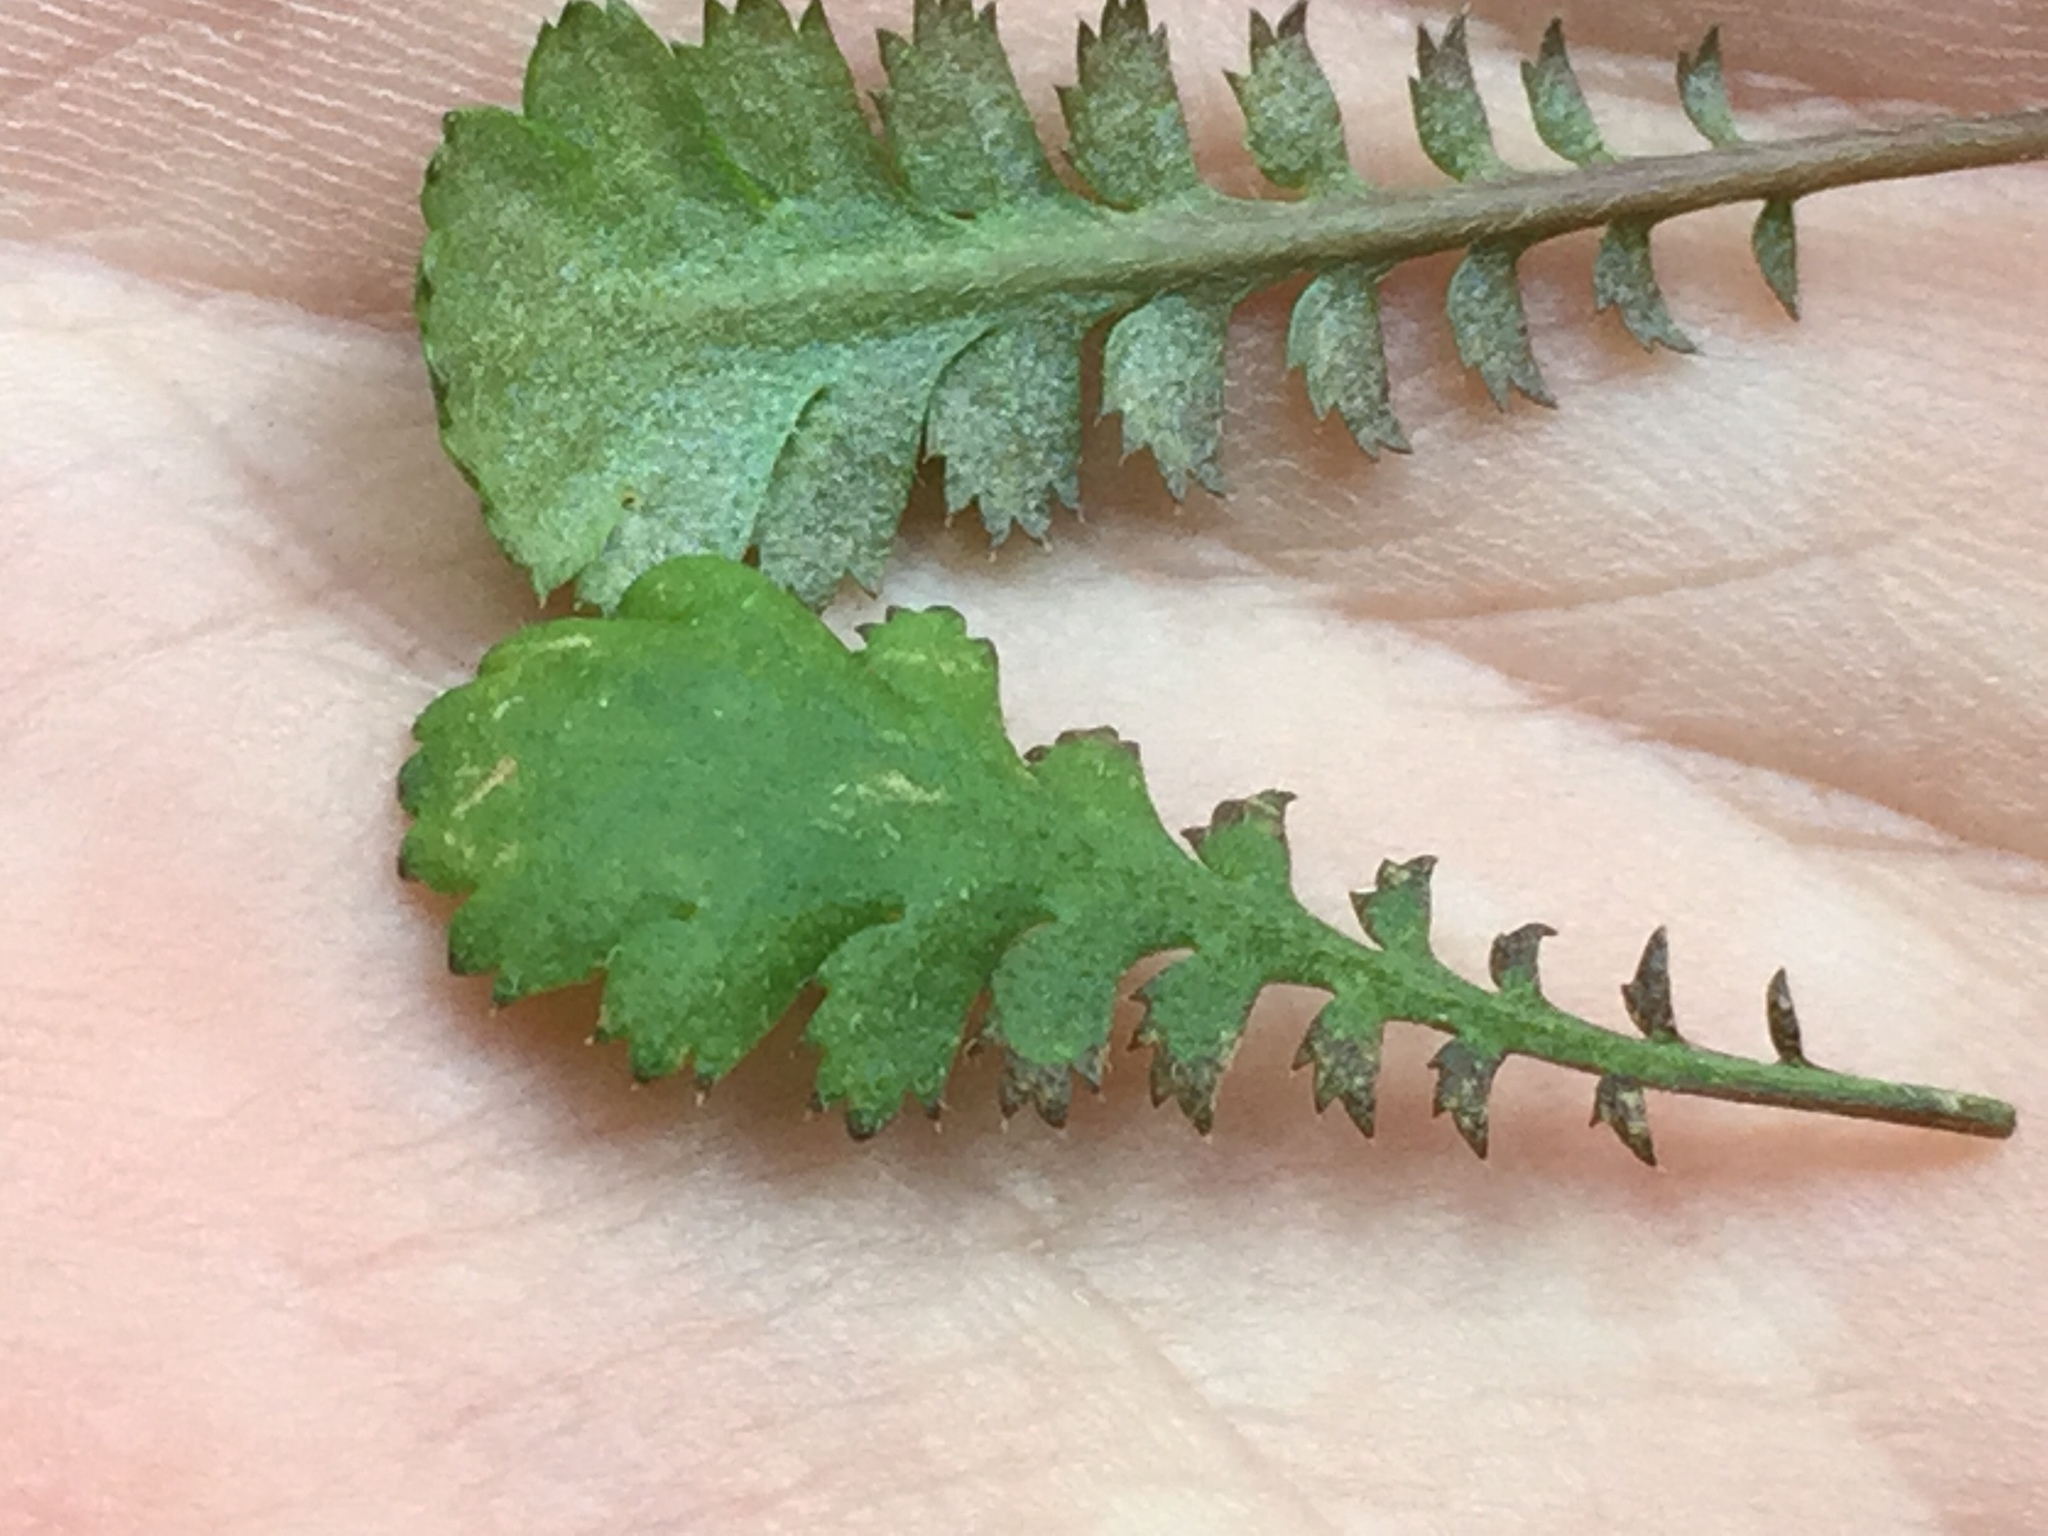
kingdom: Plantae
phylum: Tracheophyta
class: Magnoliopsida
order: Asterales
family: Asteraceae
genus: Leptinella
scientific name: Leptinella squalida
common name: New zealand brass-buttons
